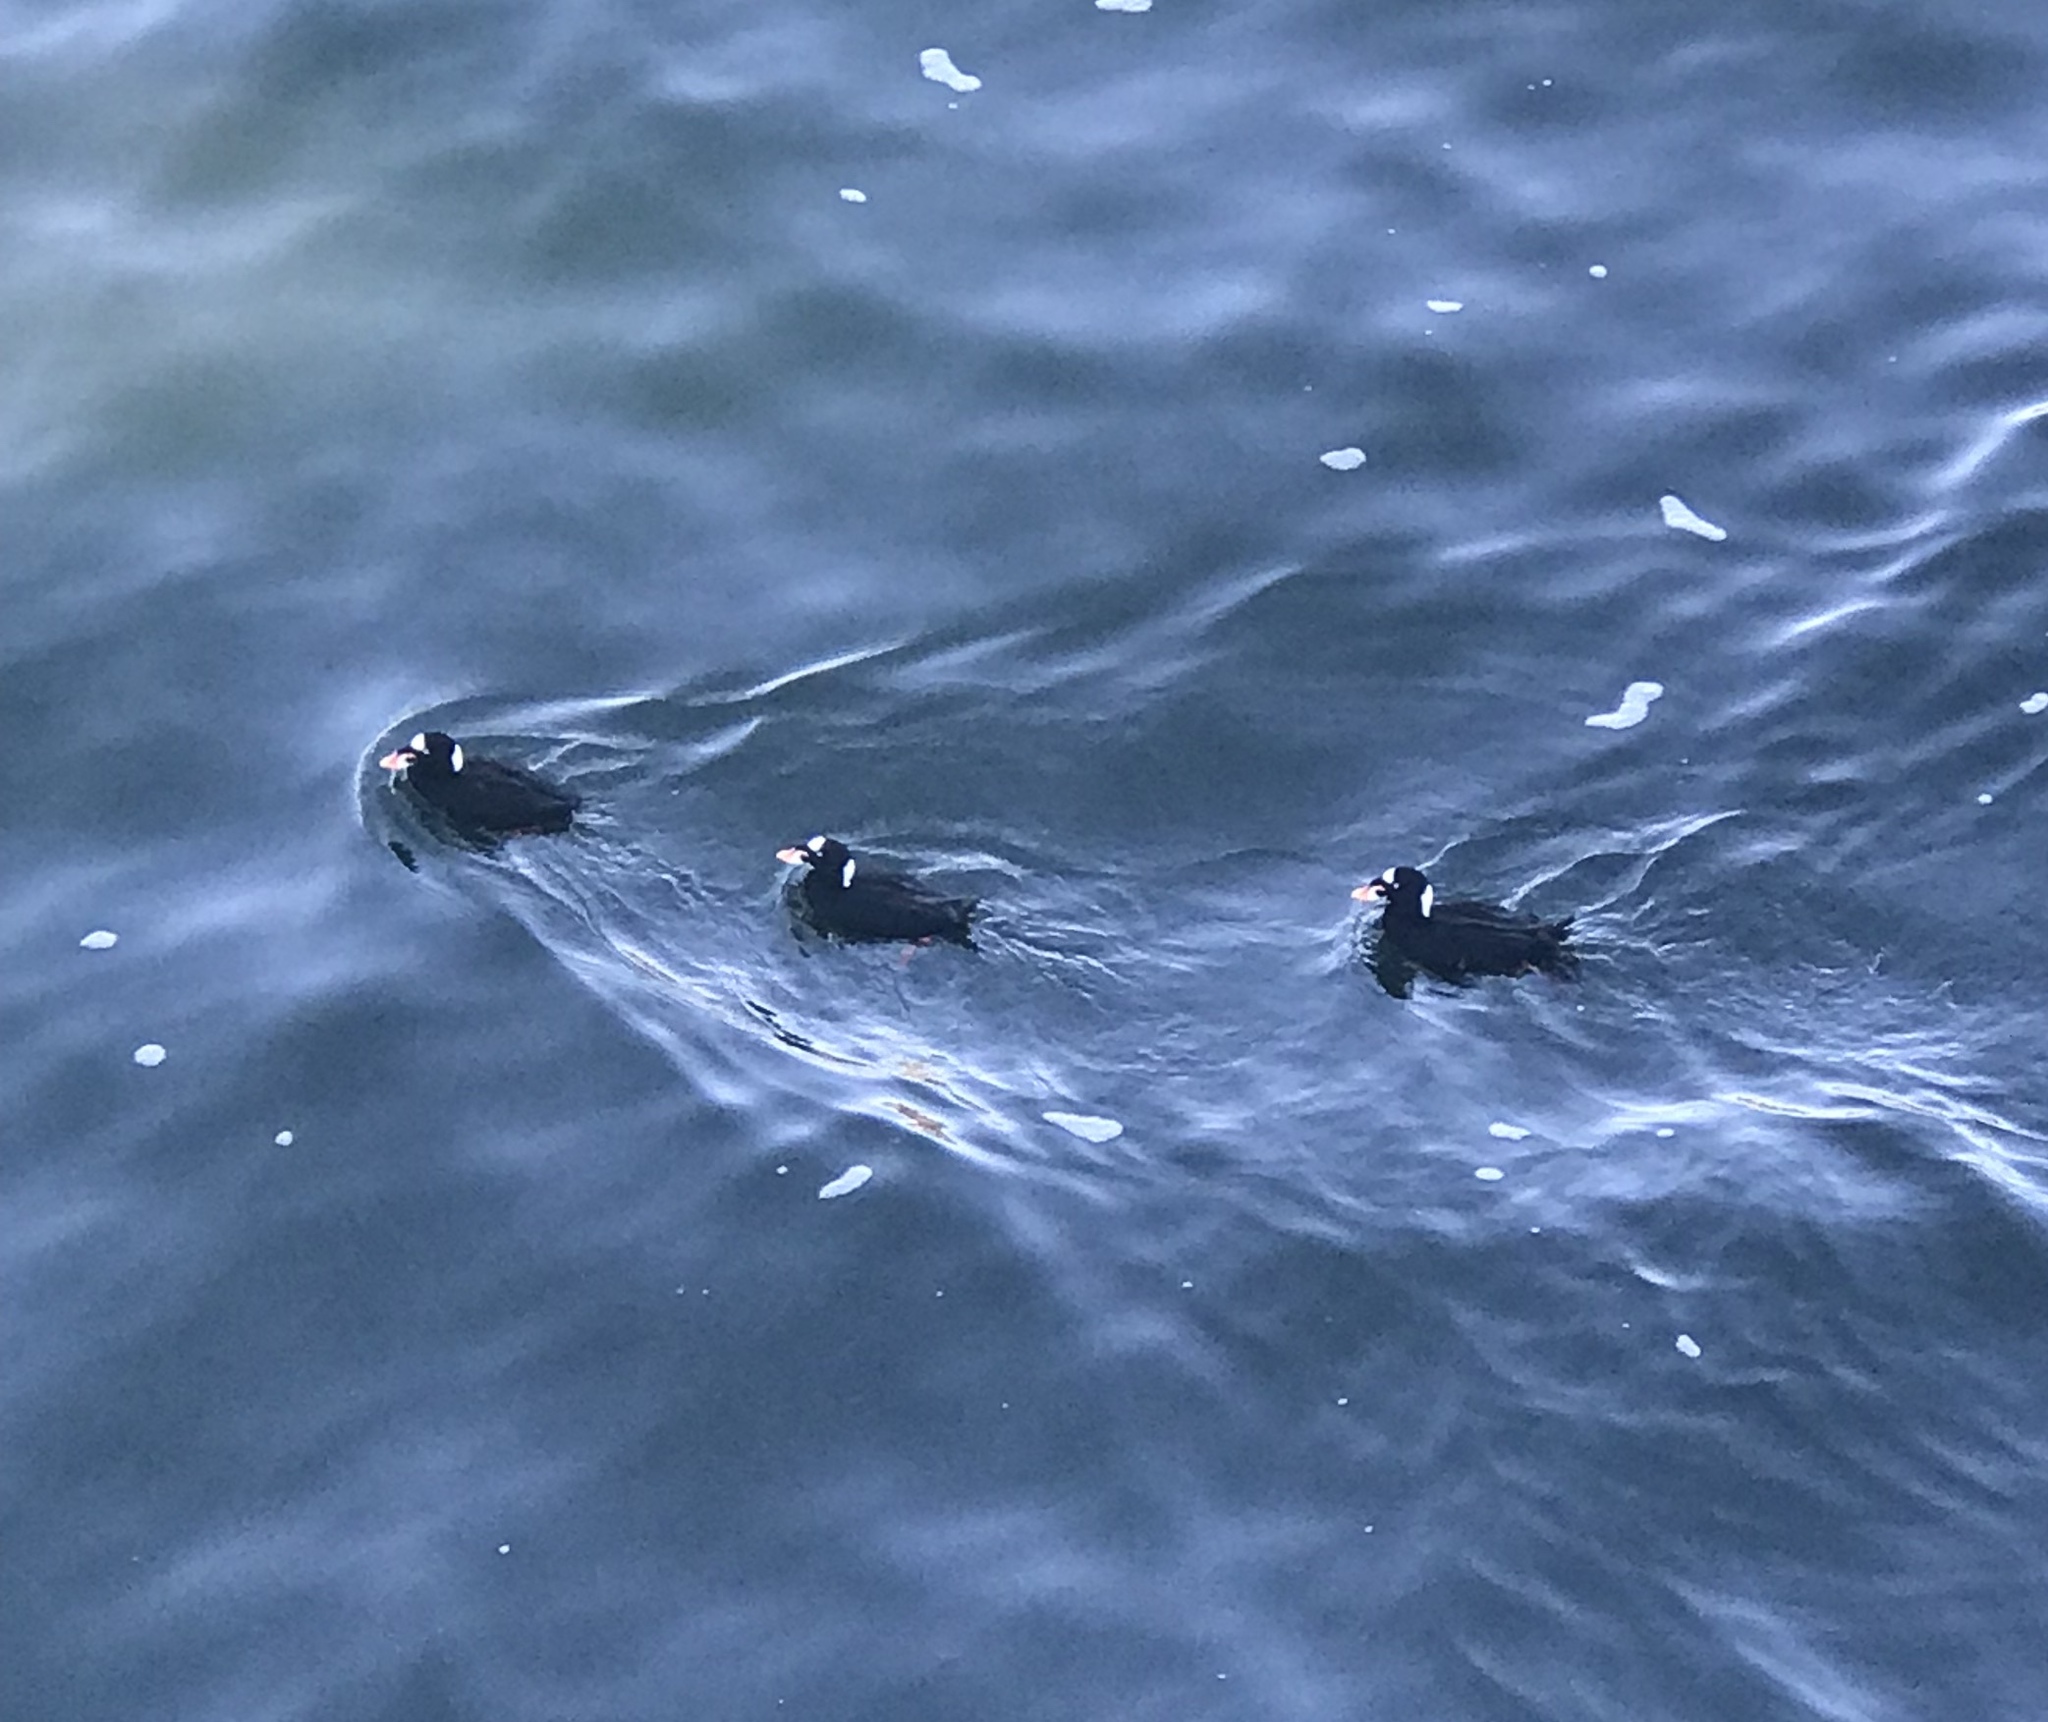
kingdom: Animalia
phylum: Chordata
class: Aves
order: Anseriformes
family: Anatidae
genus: Melanitta
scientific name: Melanitta perspicillata
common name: Surf scoter
